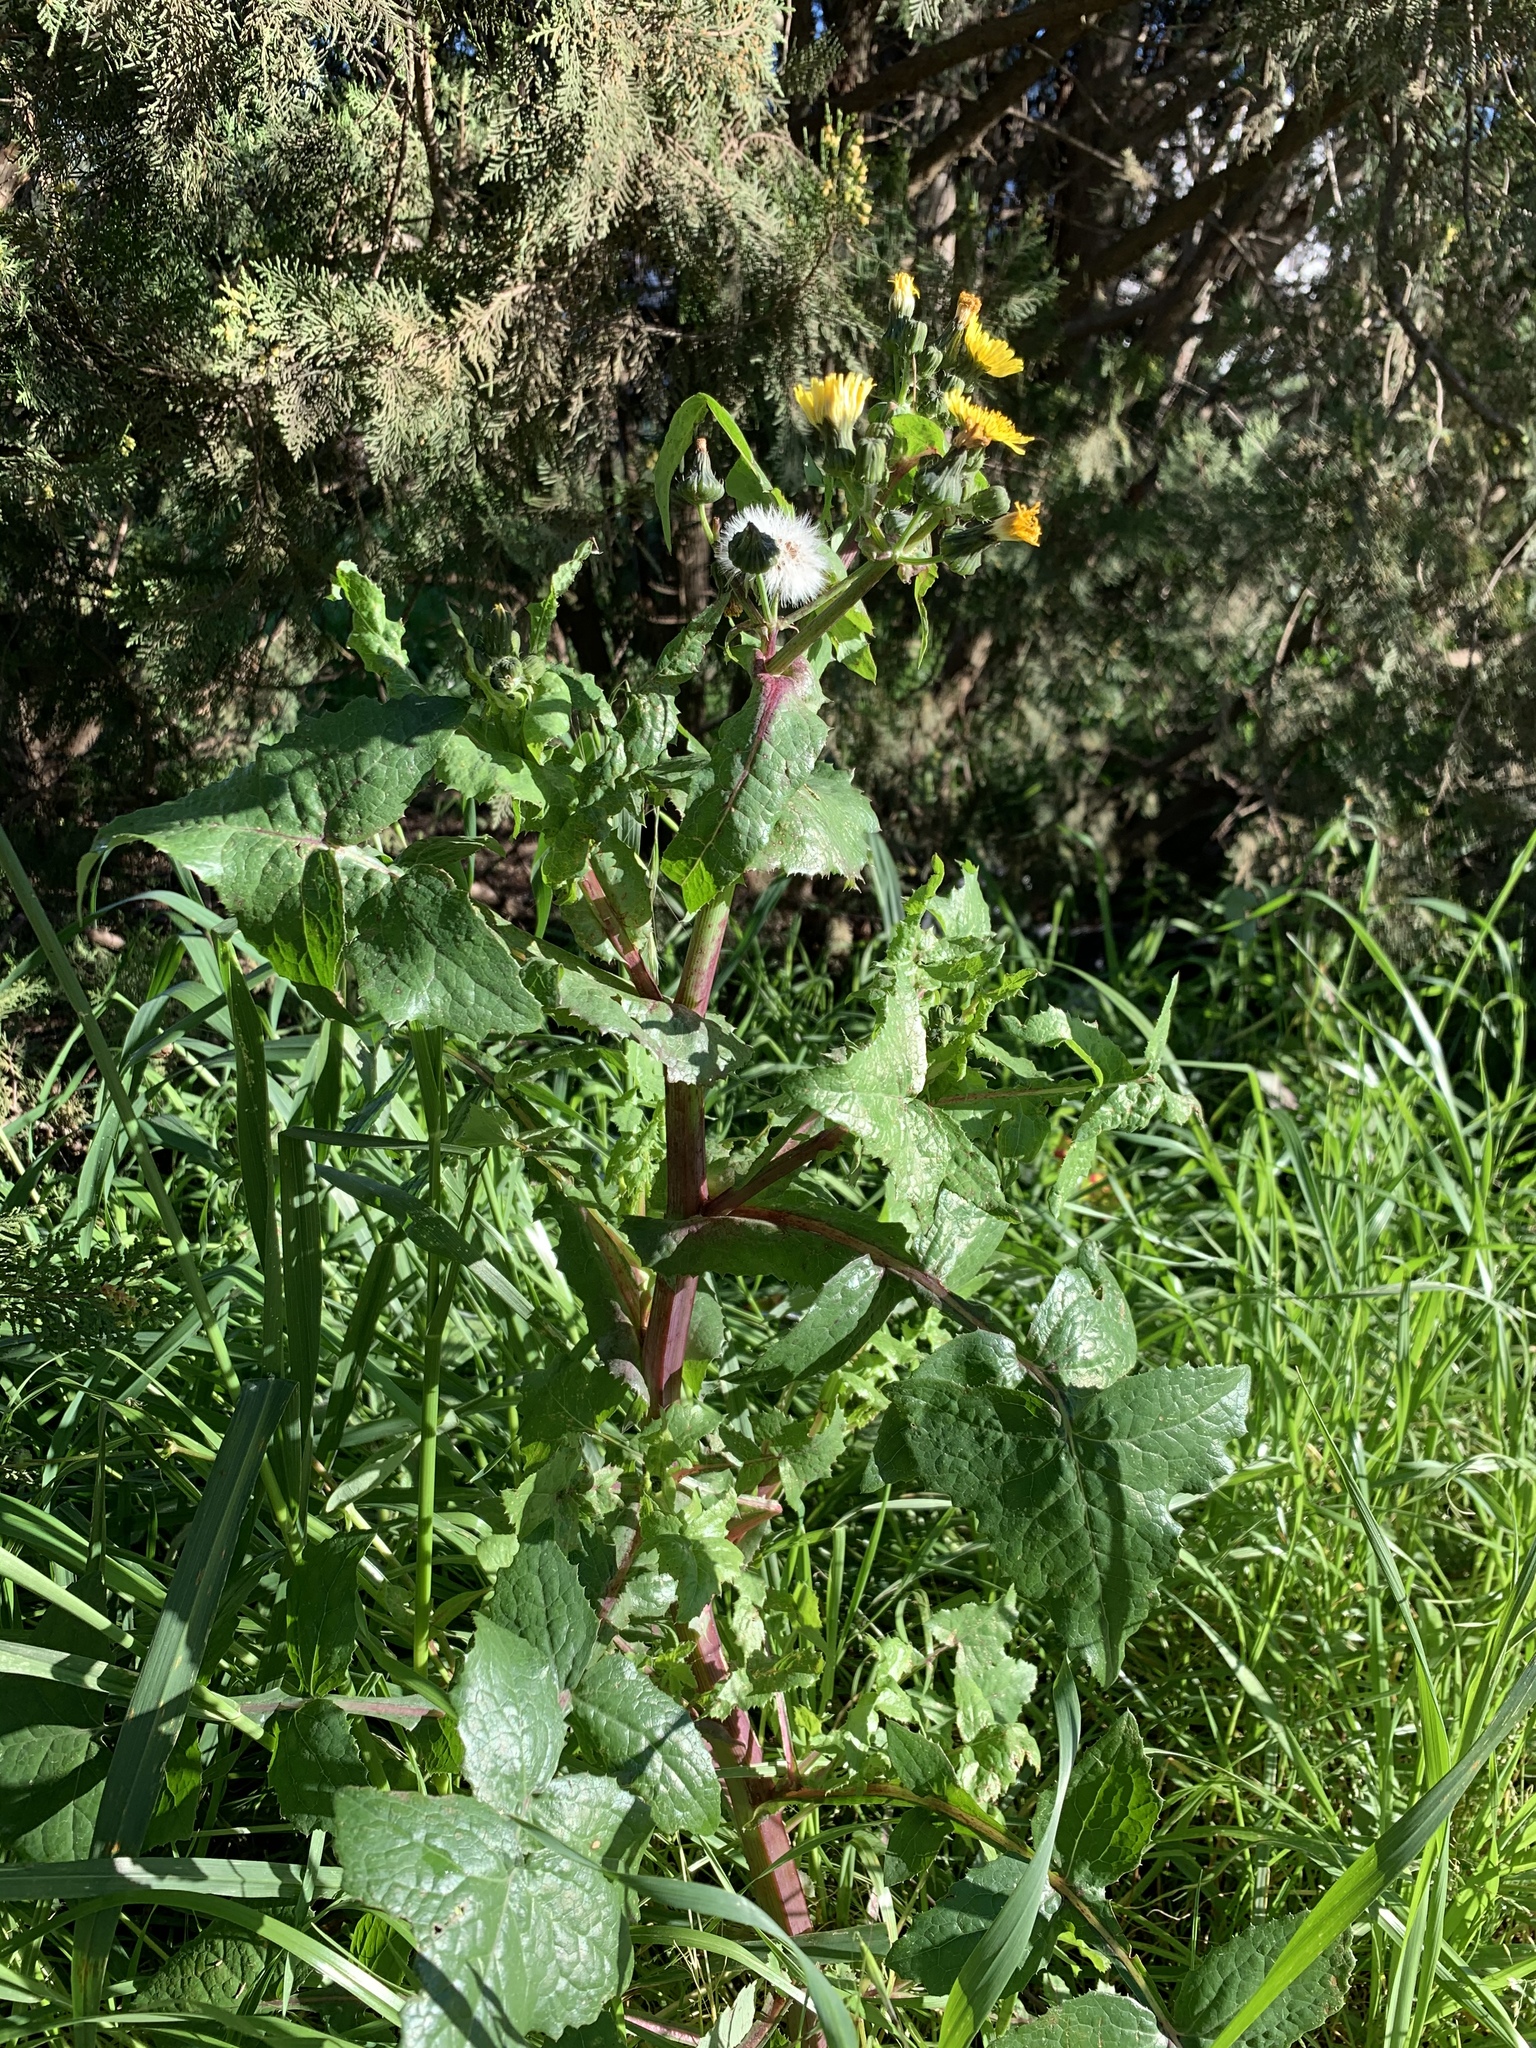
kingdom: Plantae
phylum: Tracheophyta
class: Magnoliopsida
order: Asterales
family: Asteraceae
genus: Sonchus
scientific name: Sonchus oleraceus
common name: Common sowthistle
